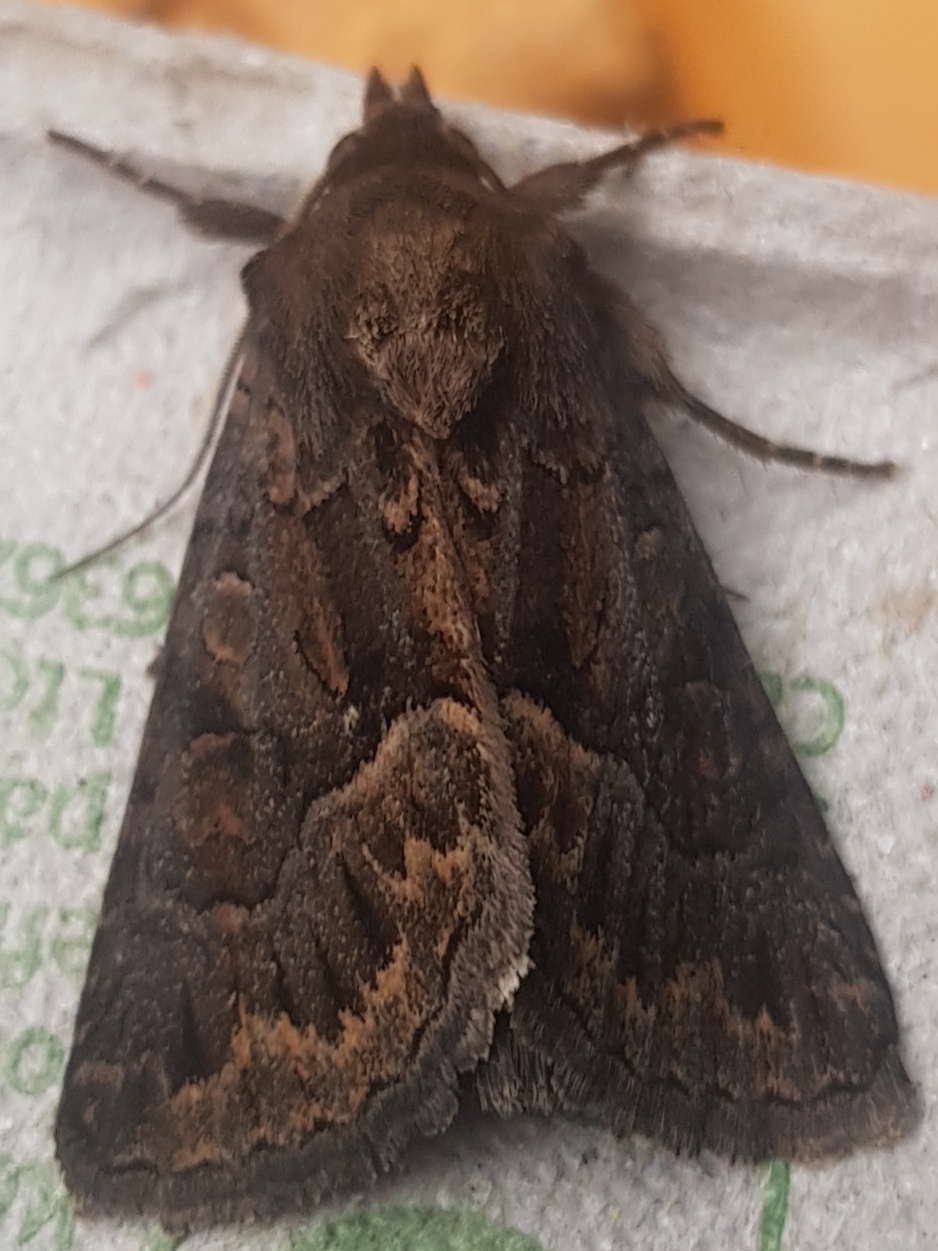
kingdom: Animalia
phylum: Arthropoda
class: Insecta
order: Lepidoptera
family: Noctuidae
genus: Thalpophila
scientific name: Thalpophila matura
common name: Straw underwing
